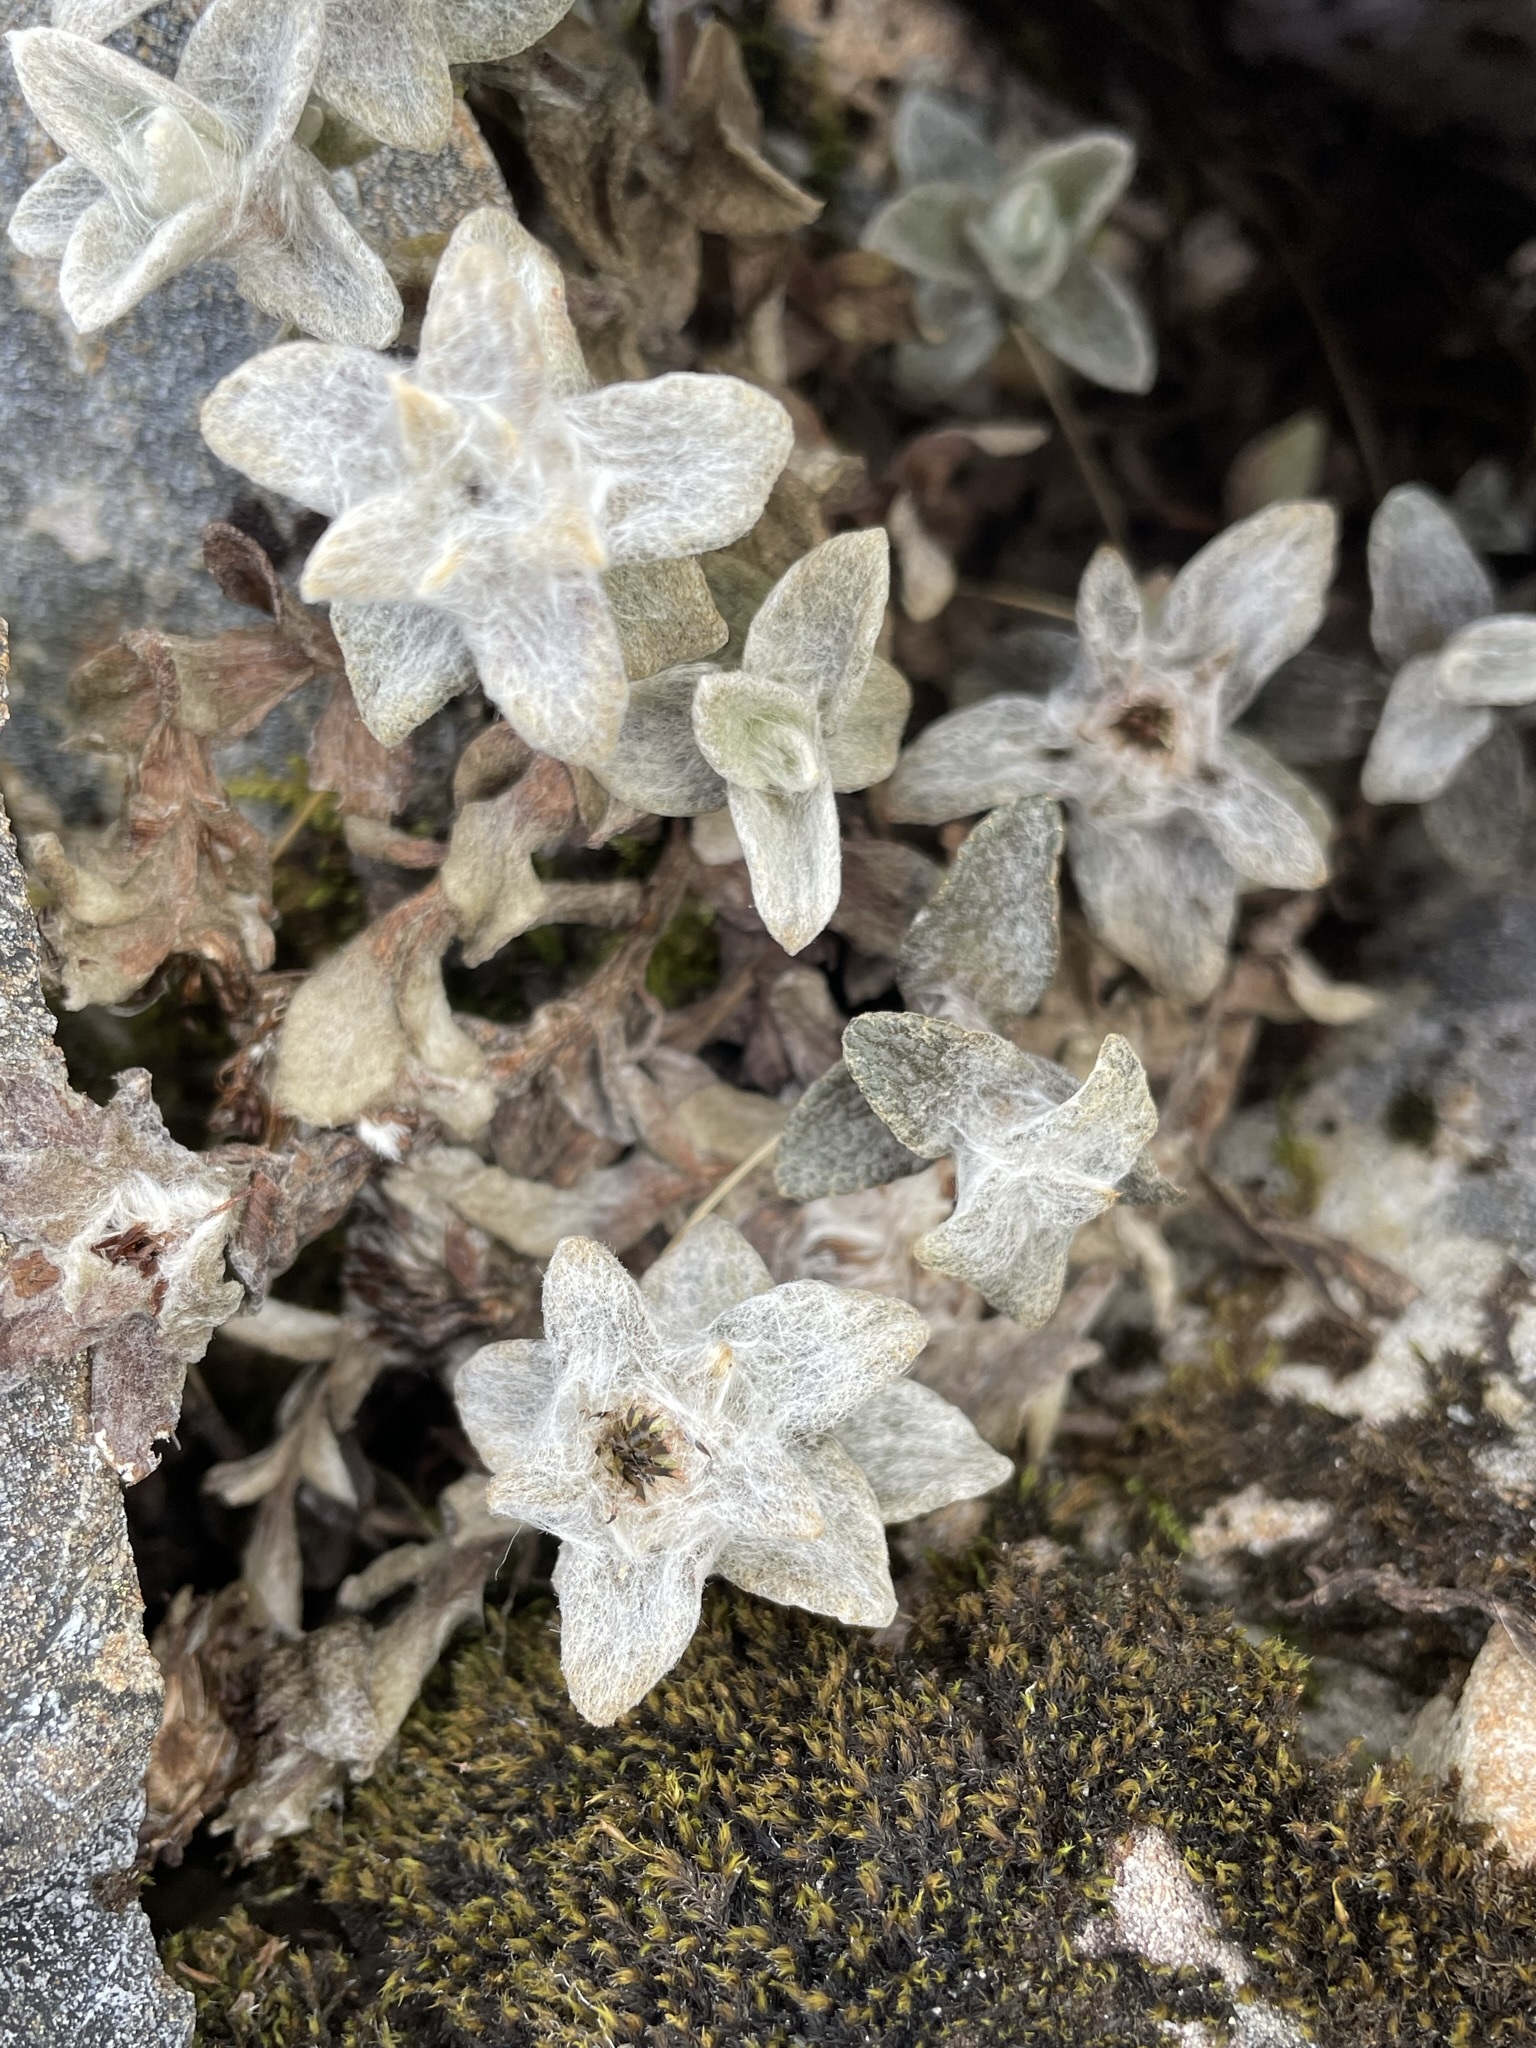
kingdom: Plantae
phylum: Tracheophyta
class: Magnoliopsida
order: Asterales
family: Asteraceae
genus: Haastia
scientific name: Haastia sinclairii
